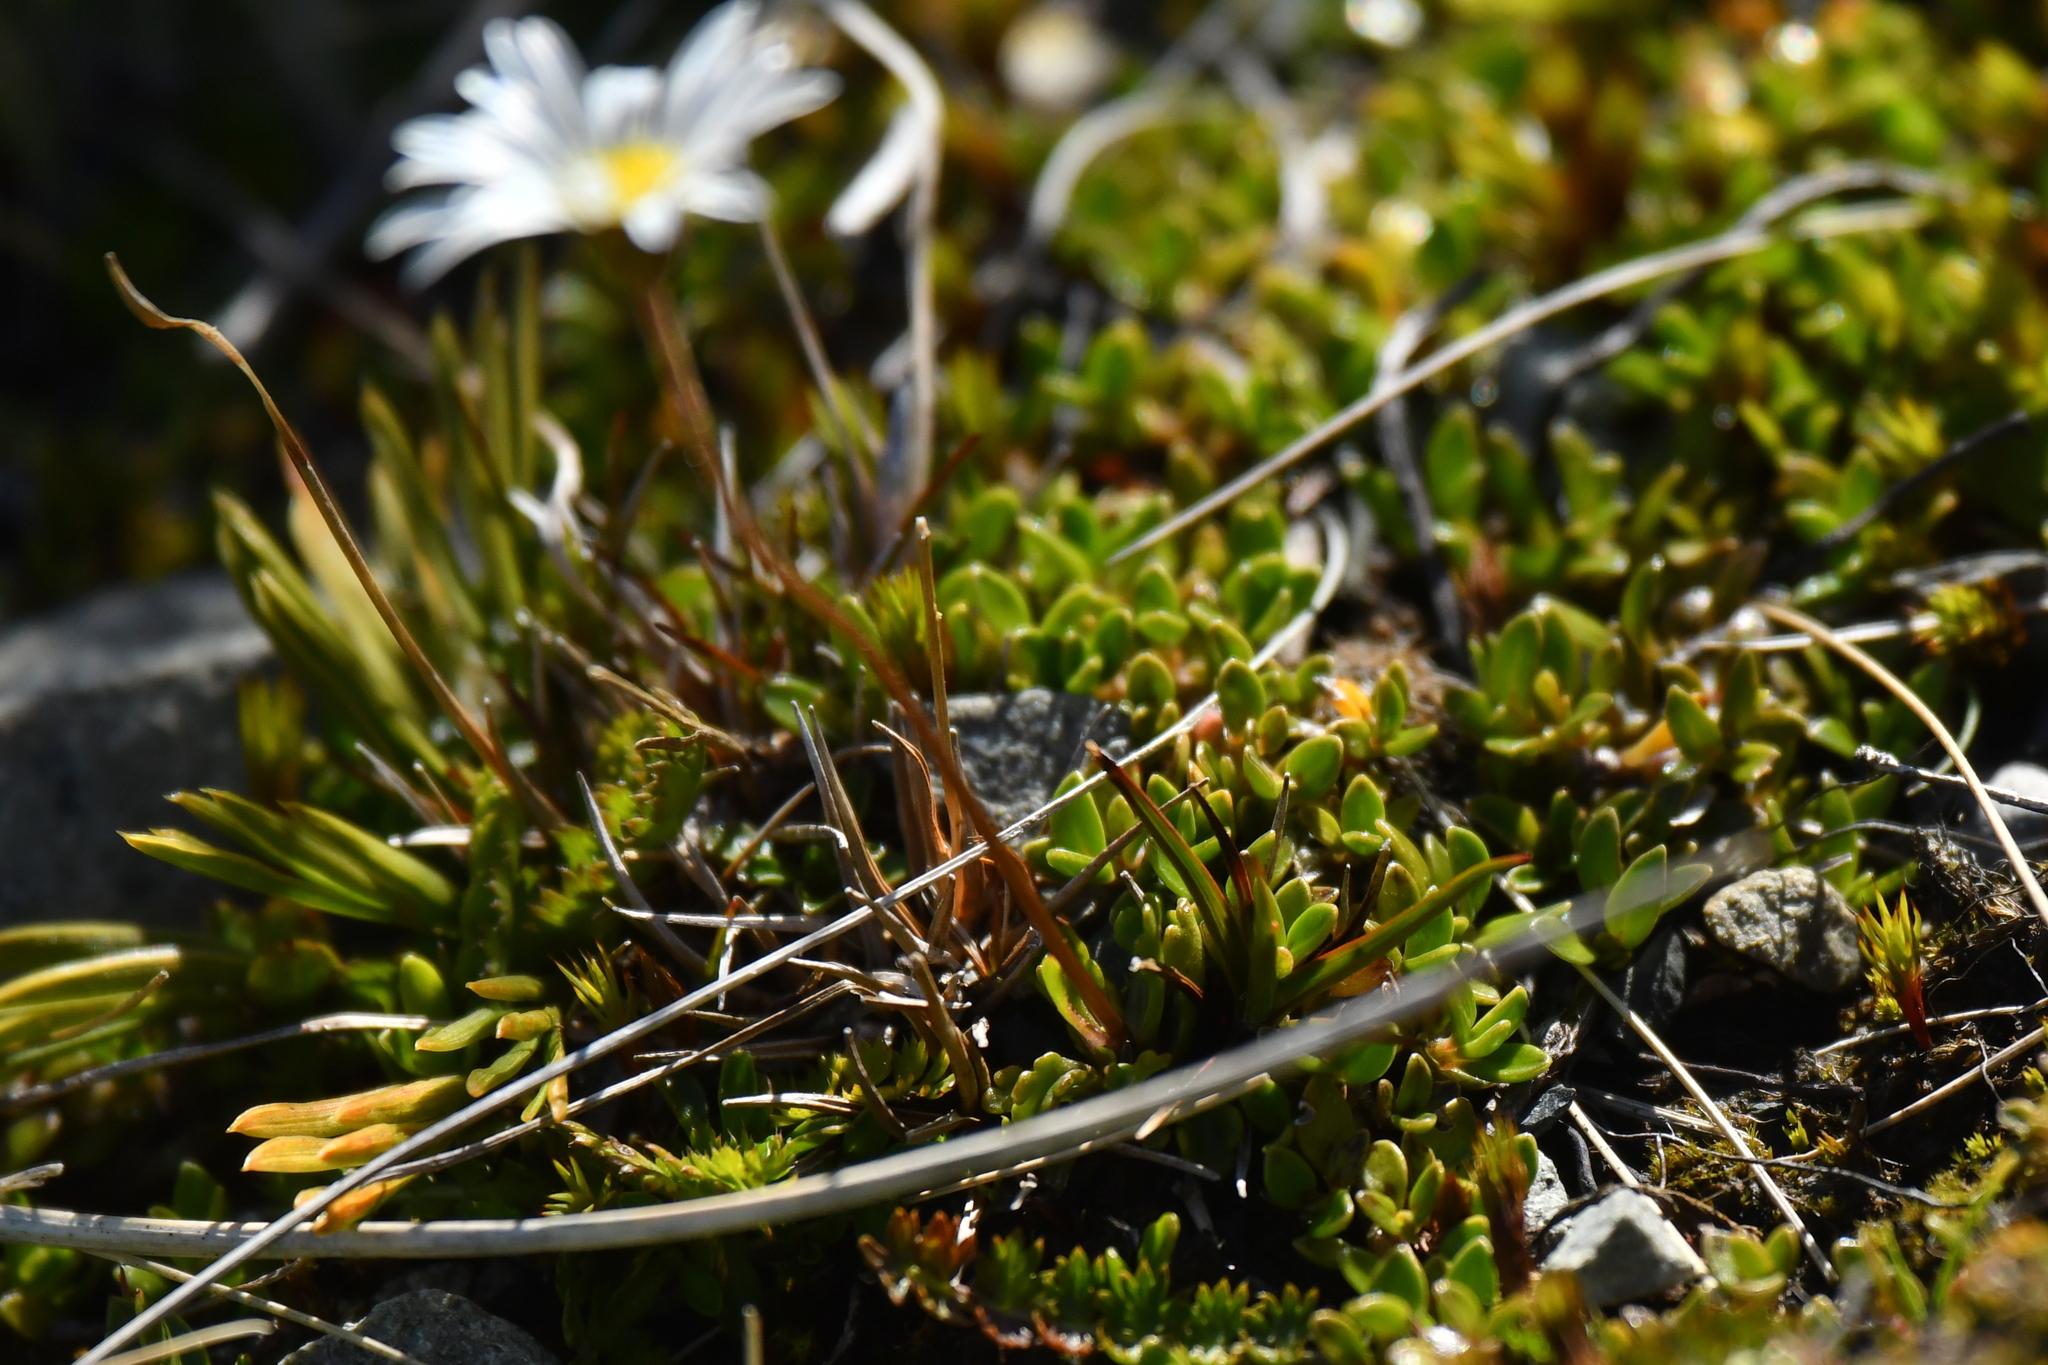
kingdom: Plantae
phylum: Tracheophyta
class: Magnoliopsida
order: Asterales
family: Asteraceae
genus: Brachyscome
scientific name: Brachyscome sinclairii
